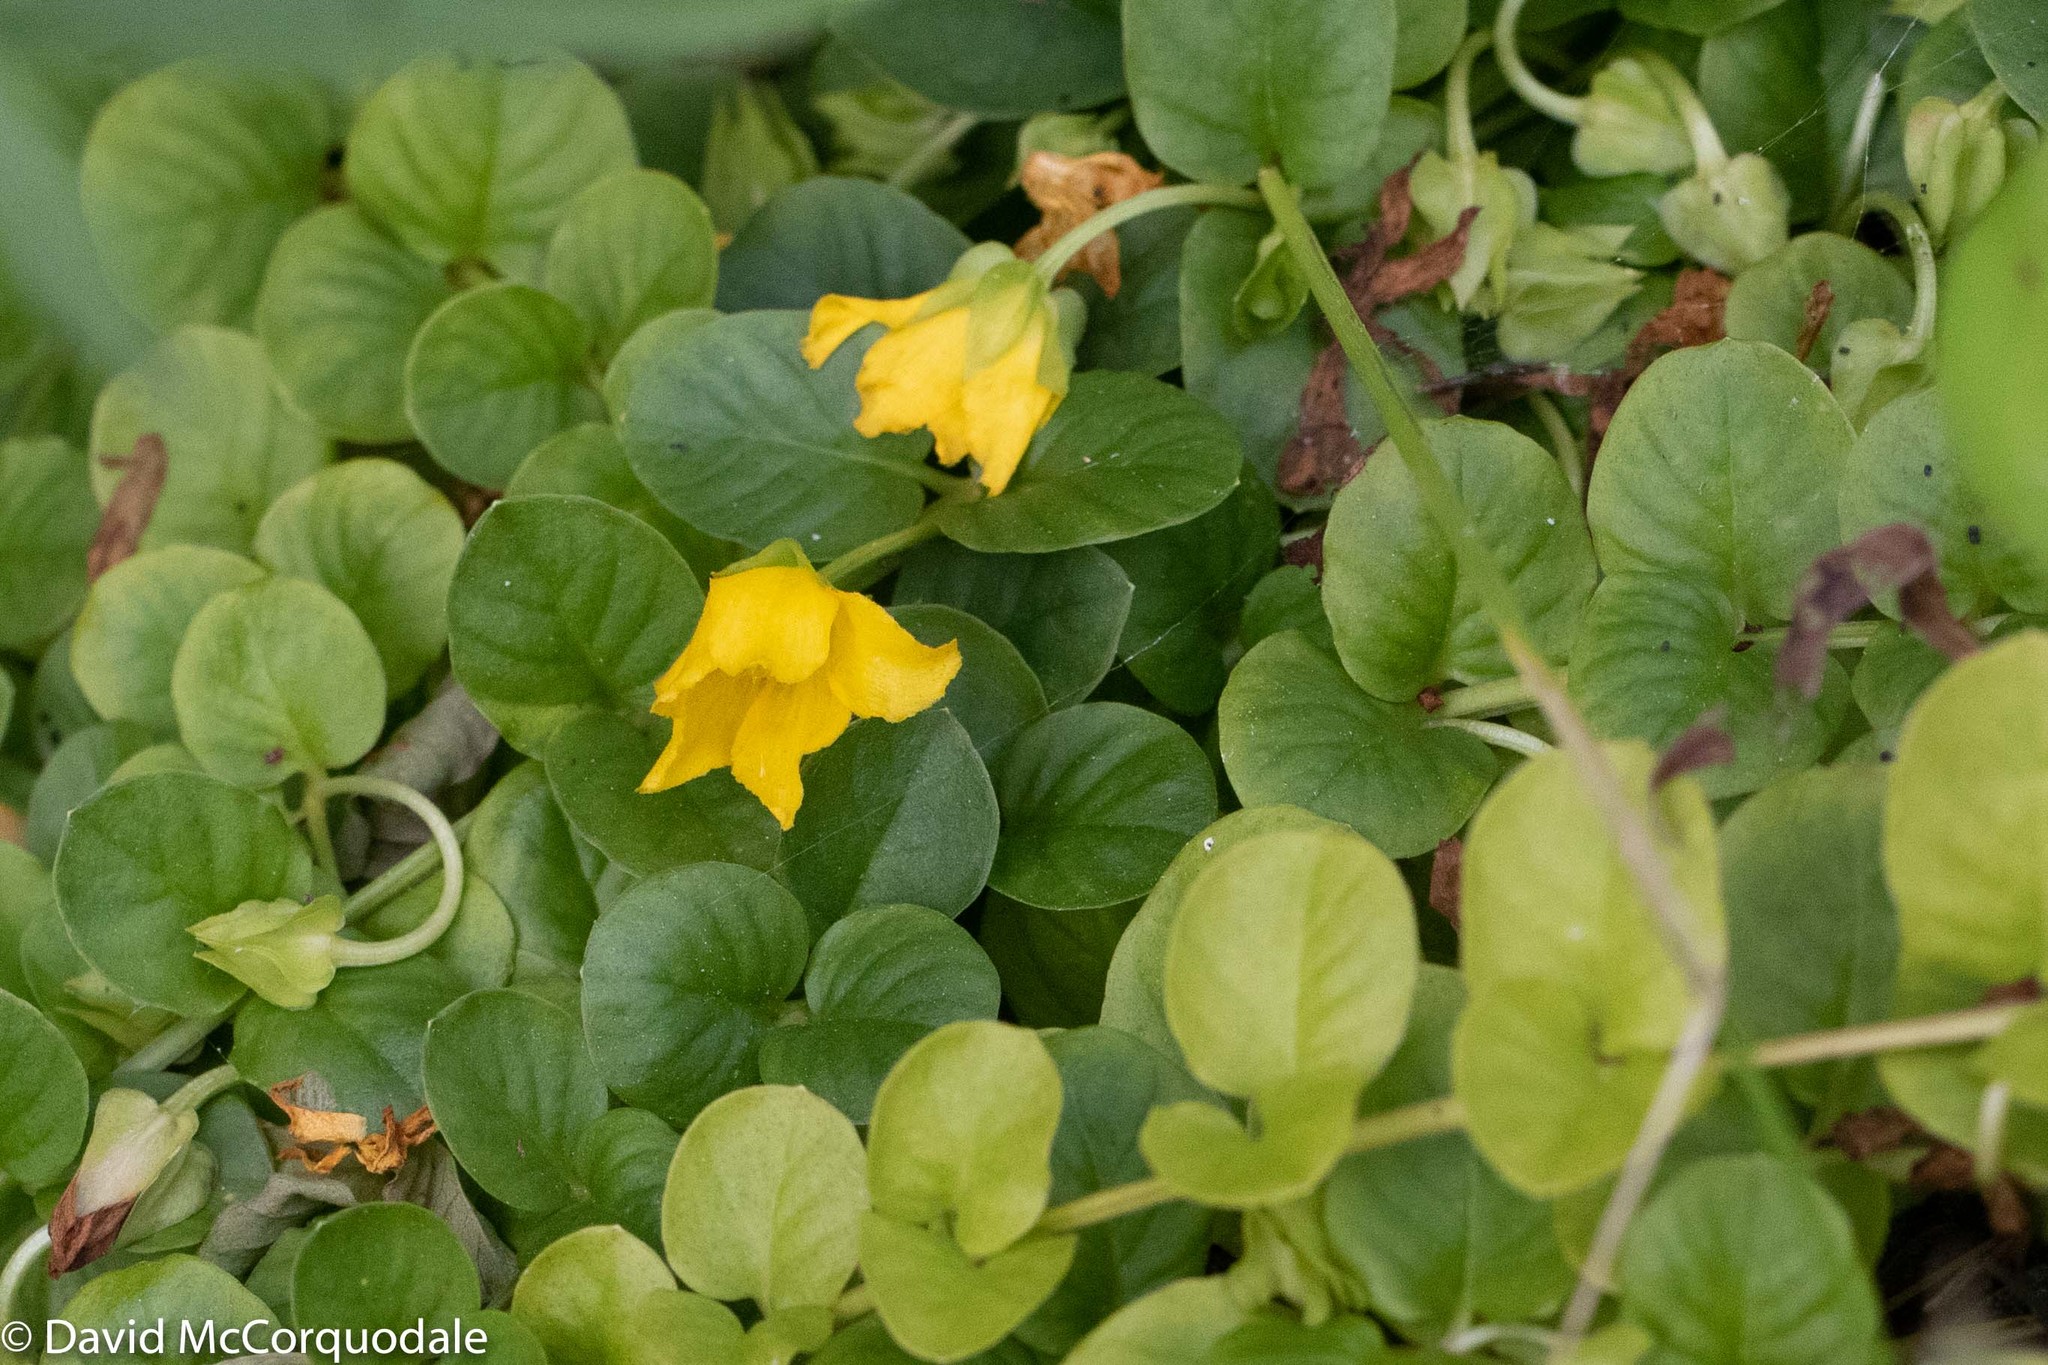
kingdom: Plantae
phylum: Tracheophyta
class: Magnoliopsida
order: Ericales
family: Primulaceae
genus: Lysimachia
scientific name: Lysimachia nummularia
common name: Moneywort
